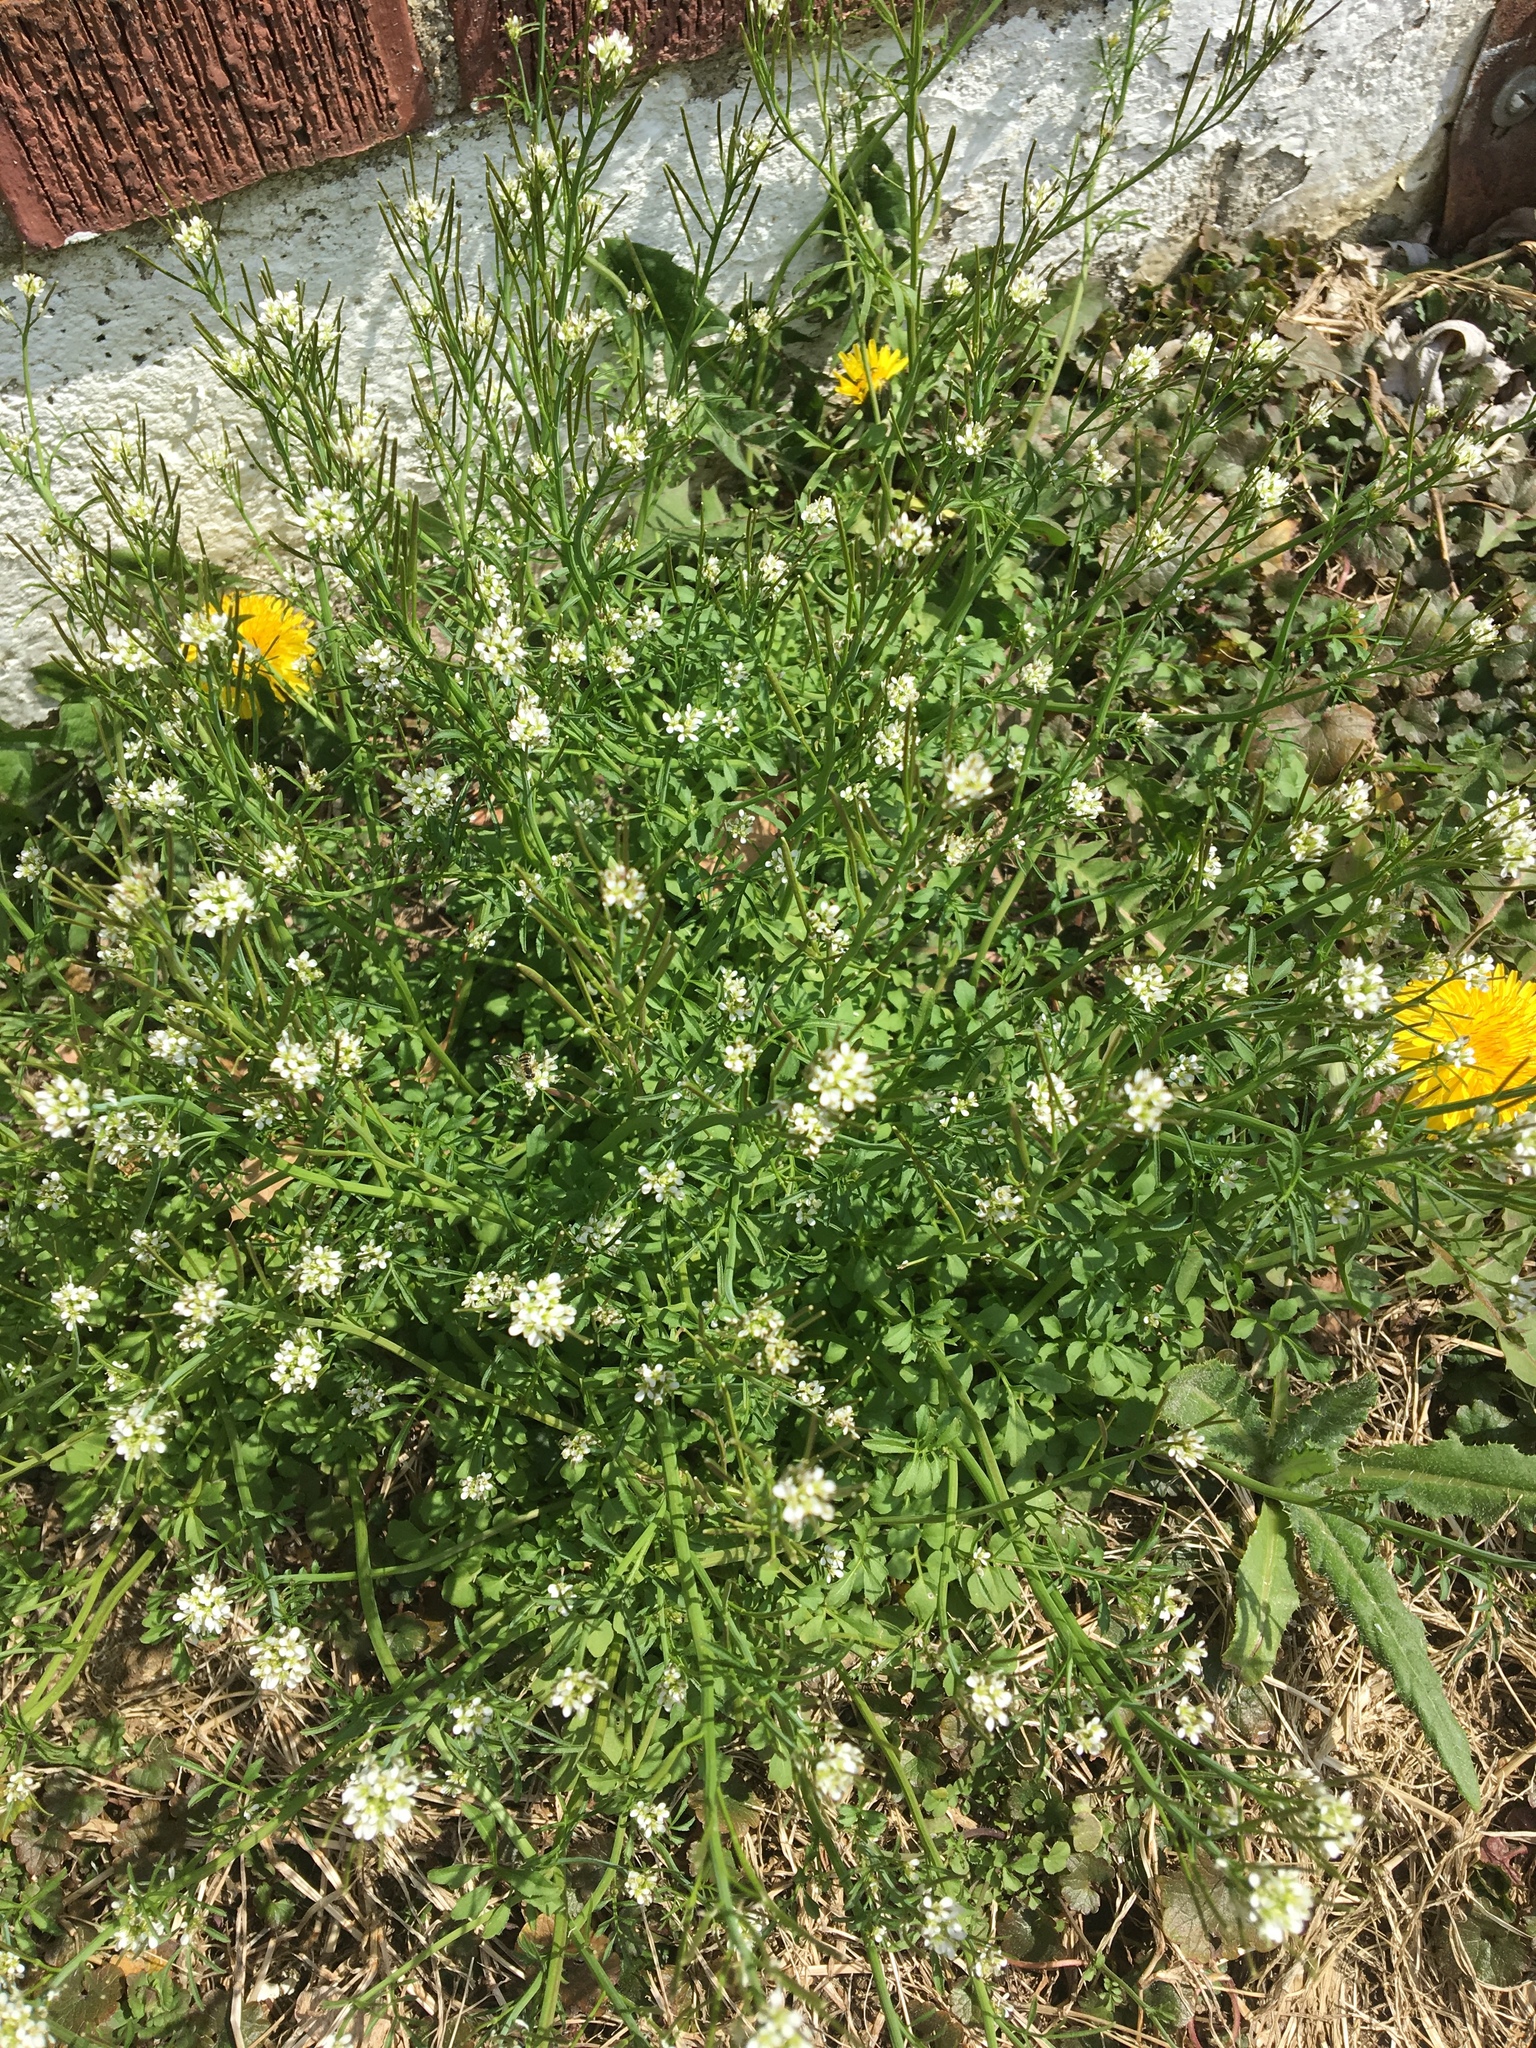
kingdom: Plantae
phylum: Tracheophyta
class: Magnoliopsida
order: Brassicales
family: Brassicaceae
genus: Cardamine
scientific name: Cardamine hirsuta
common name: Hairy bittercress
